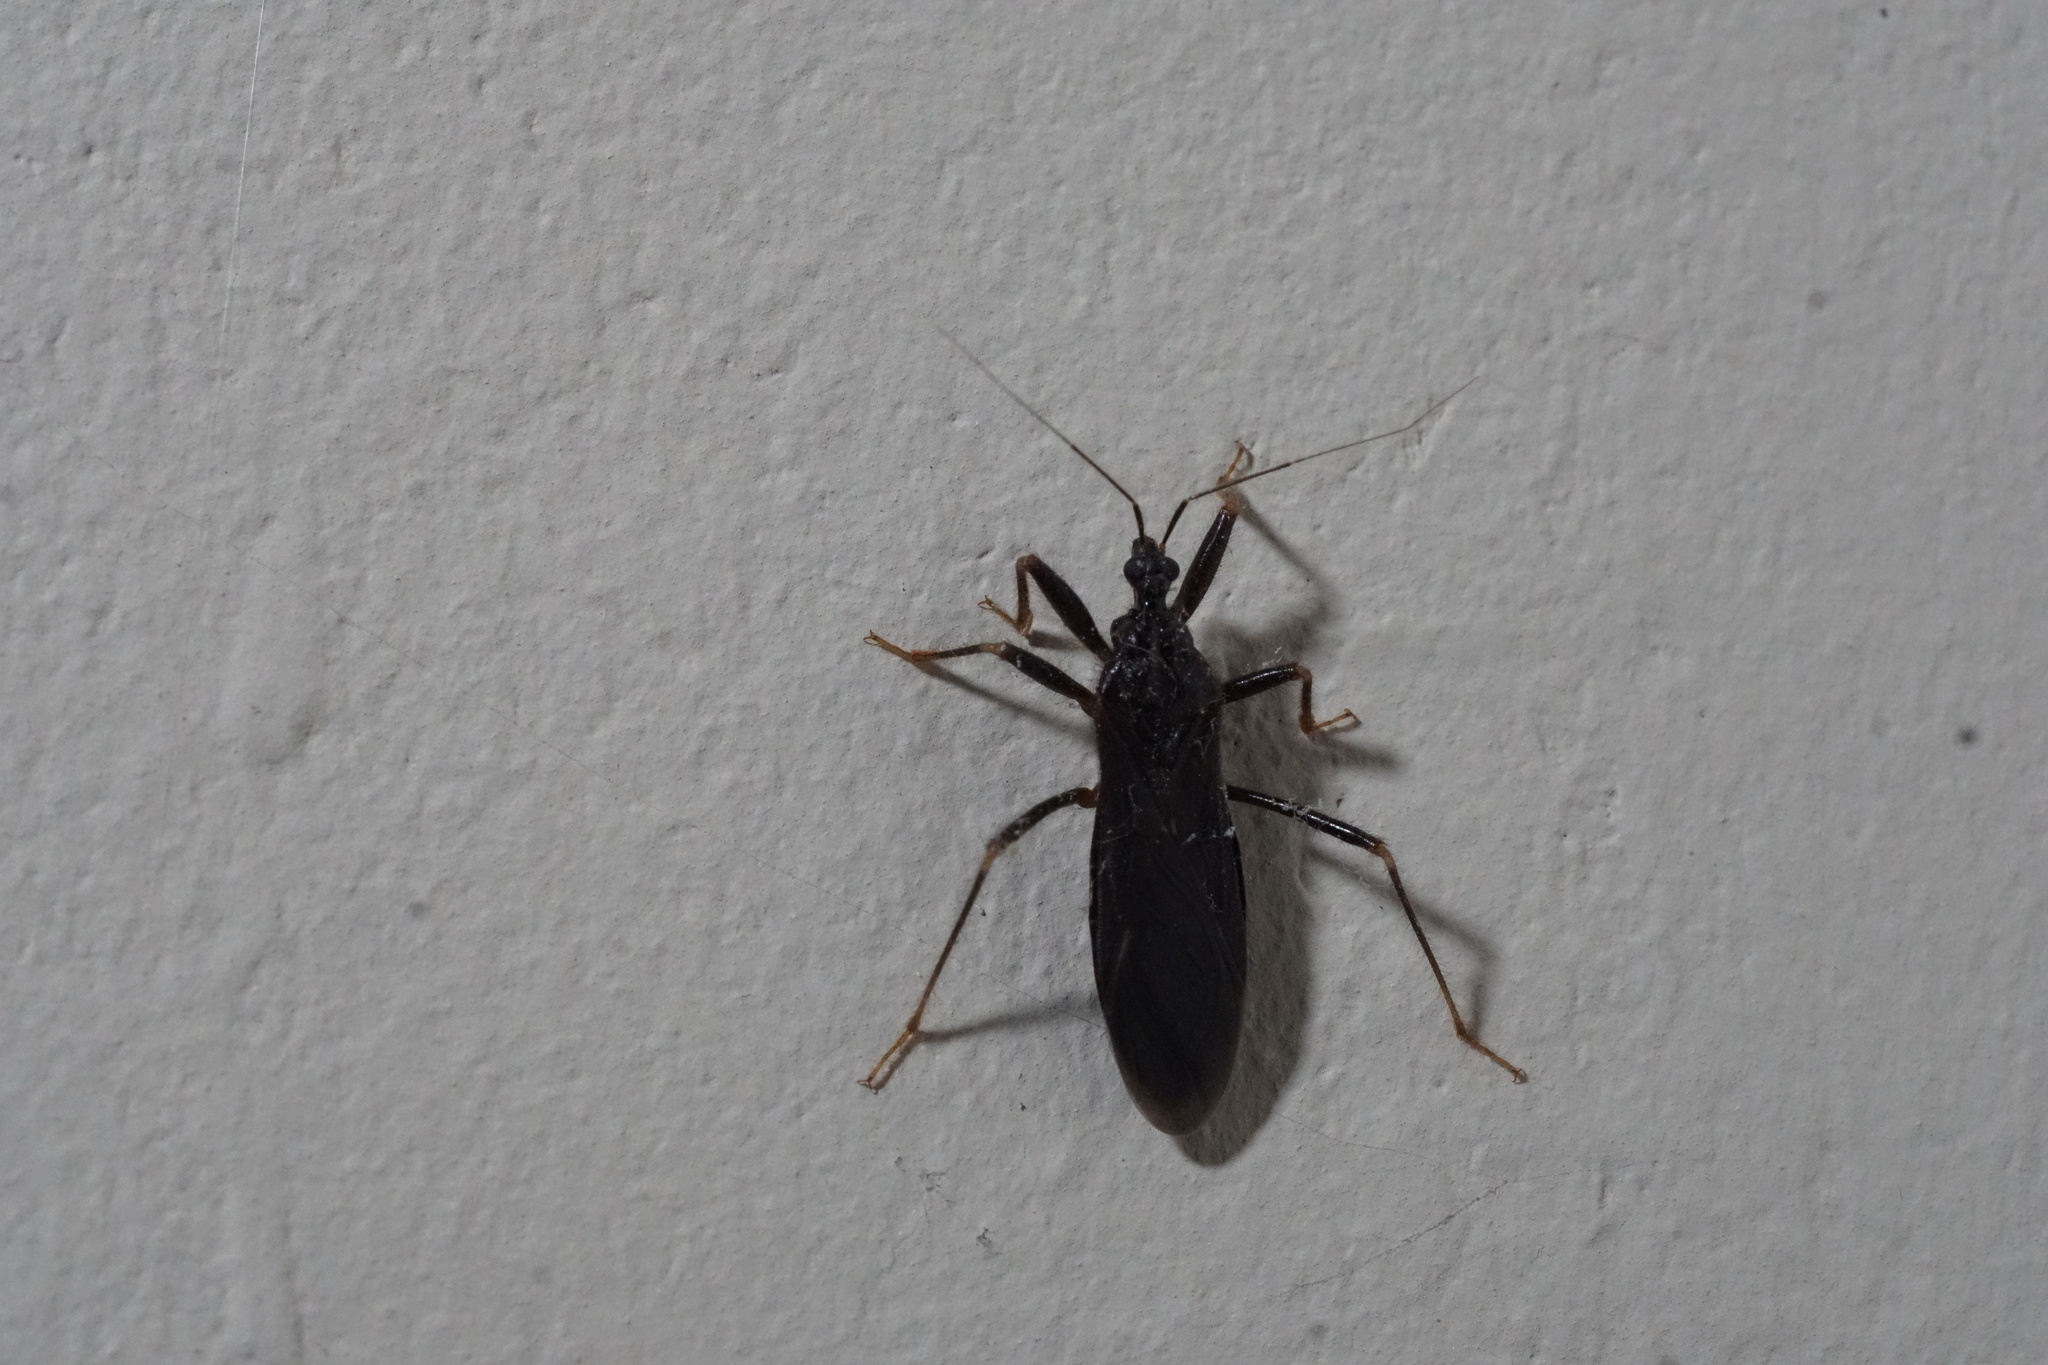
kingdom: Animalia
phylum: Arthropoda
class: Insecta
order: Hemiptera
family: Reduviidae
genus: Reduvius
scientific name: Reduvius personatus
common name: Masked hunter
